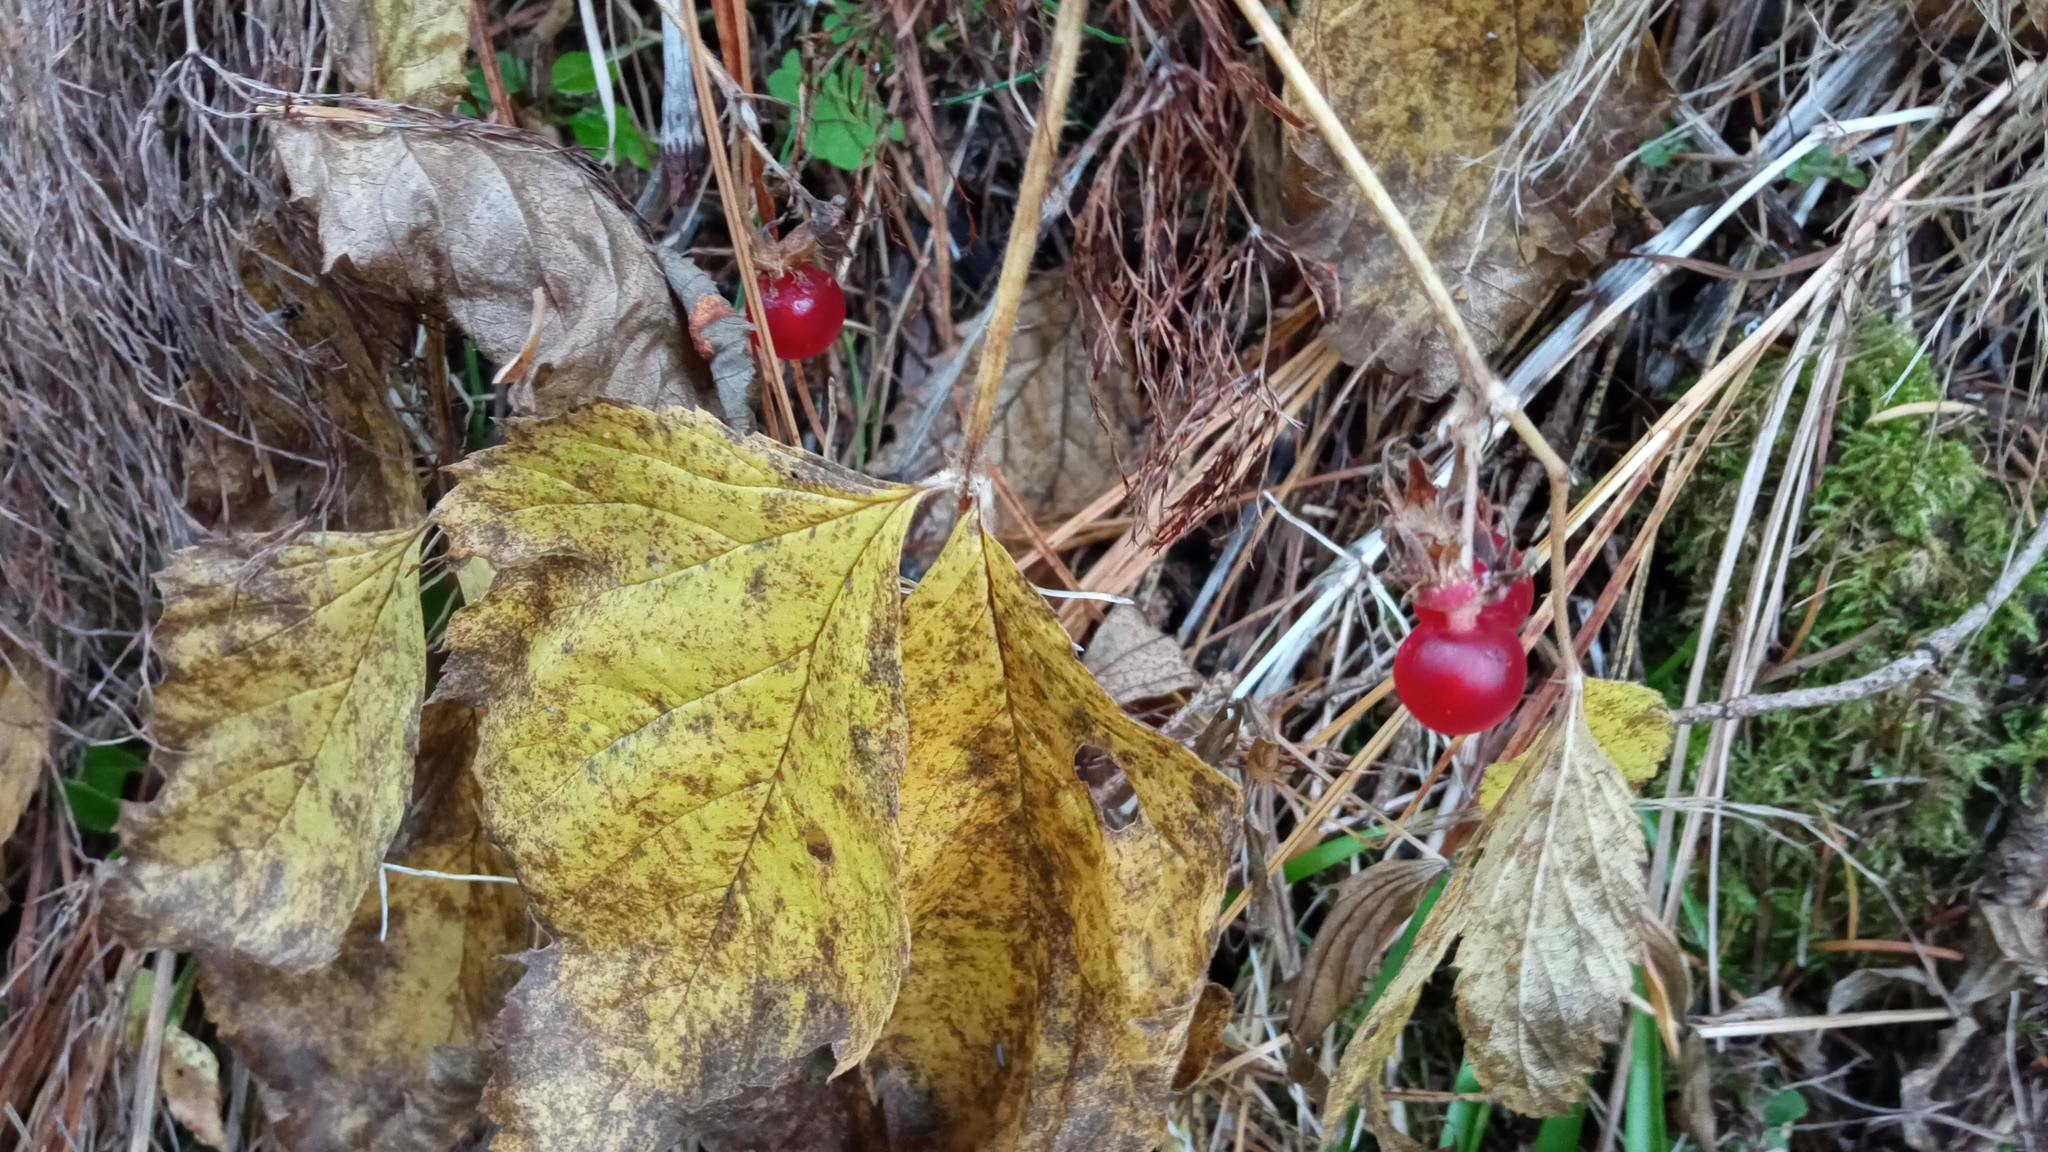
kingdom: Plantae
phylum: Tracheophyta
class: Magnoliopsida
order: Rosales
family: Rosaceae
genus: Rubus
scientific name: Rubus saxatilis
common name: Stone bramble
